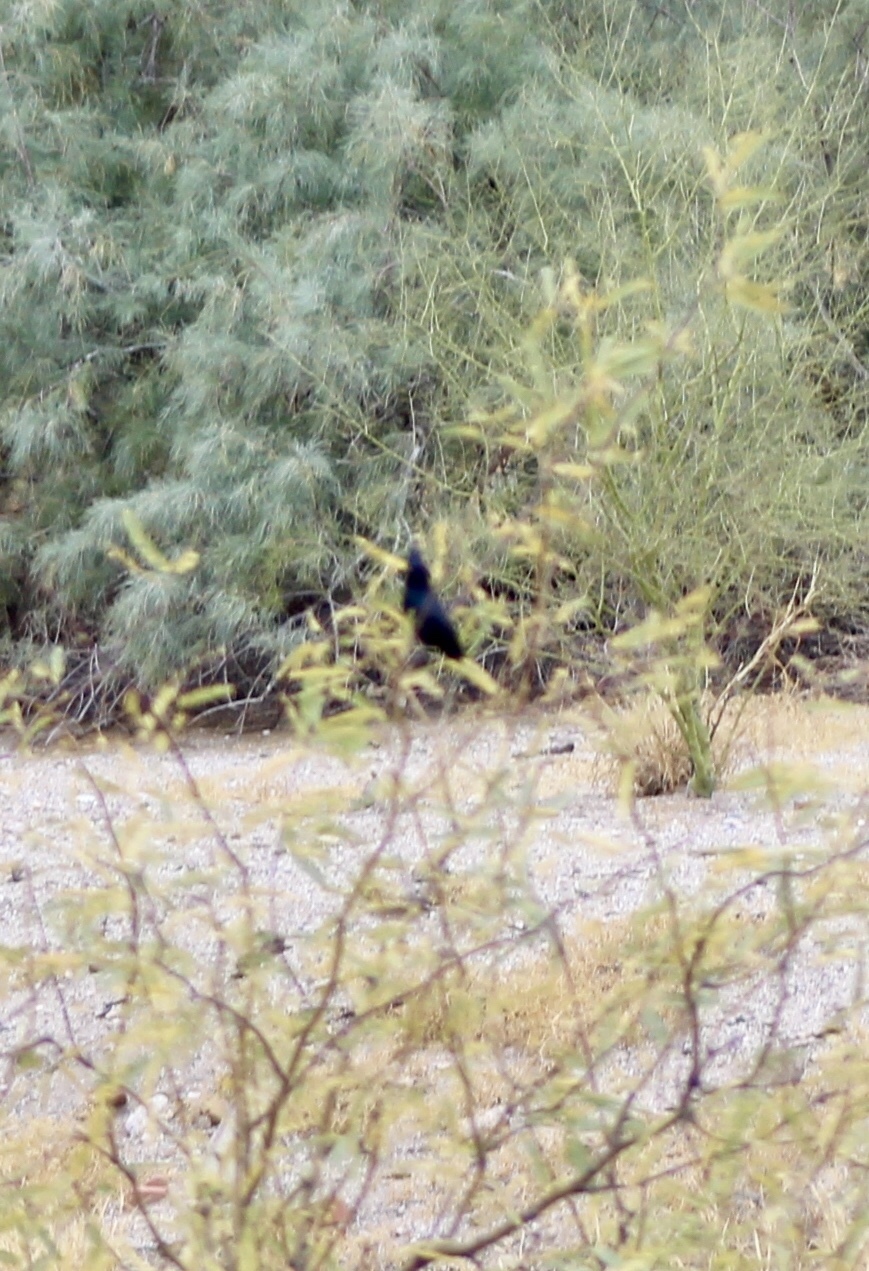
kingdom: Animalia
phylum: Chordata
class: Aves
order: Passeriformes
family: Ptilogonatidae
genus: Phainopepla
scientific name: Phainopepla nitens
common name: Phainopepla
